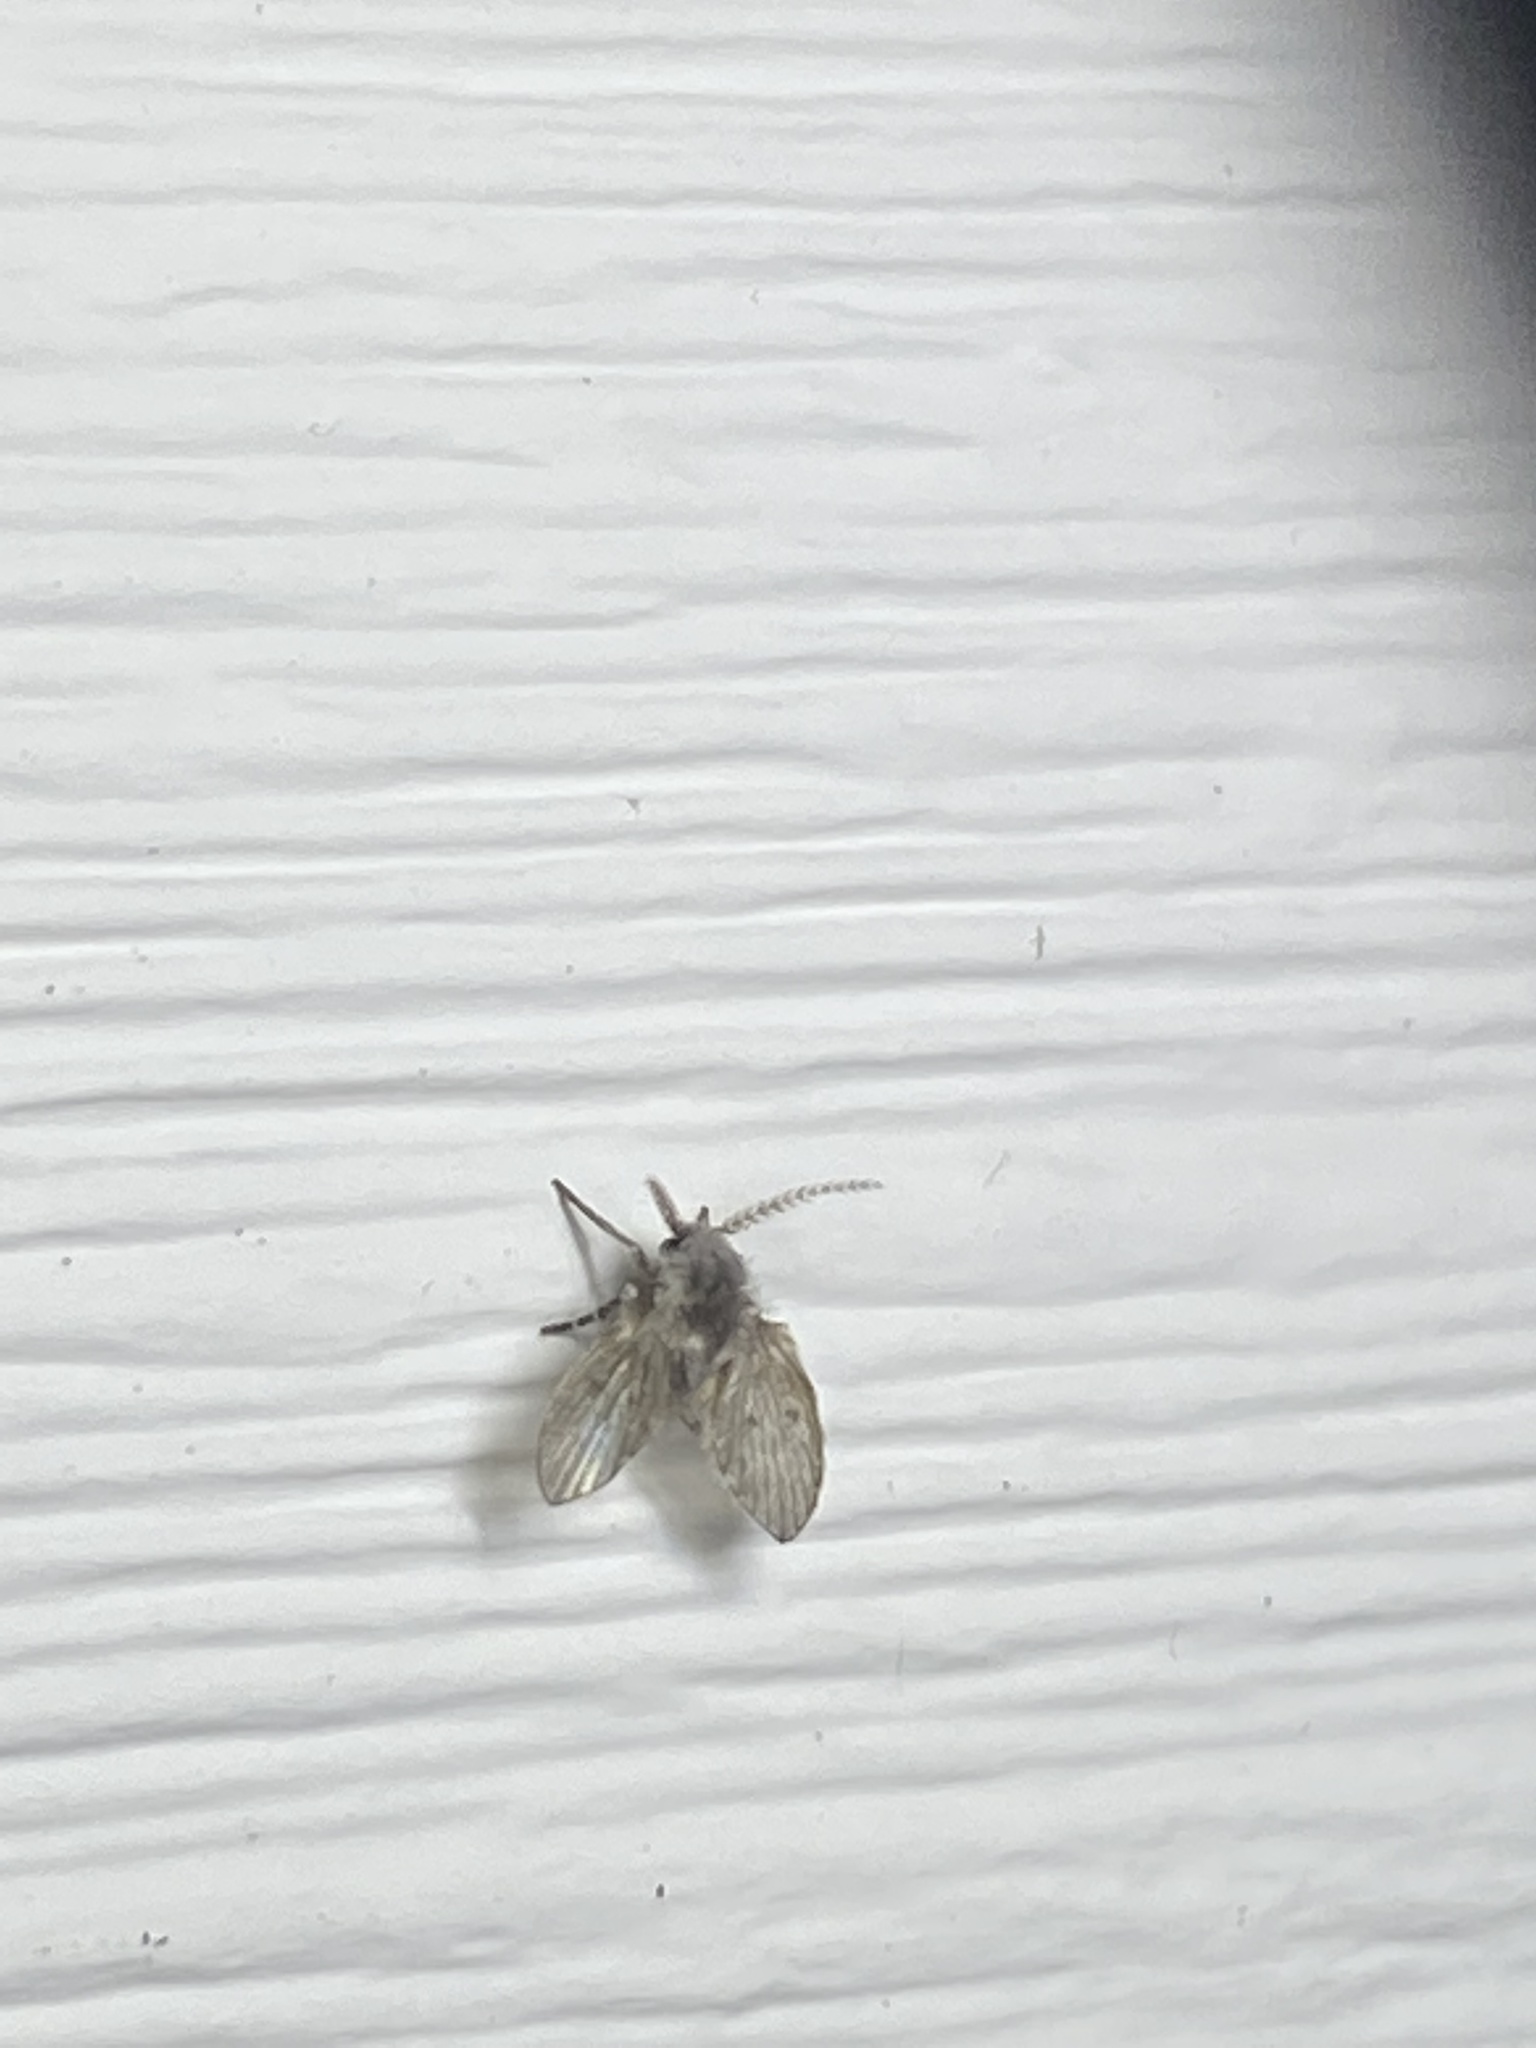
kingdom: Animalia
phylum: Arthropoda
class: Insecta
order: Diptera
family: Psychodidae
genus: Clogmia
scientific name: Clogmia albipunctatus
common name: White-spotted moth fly
